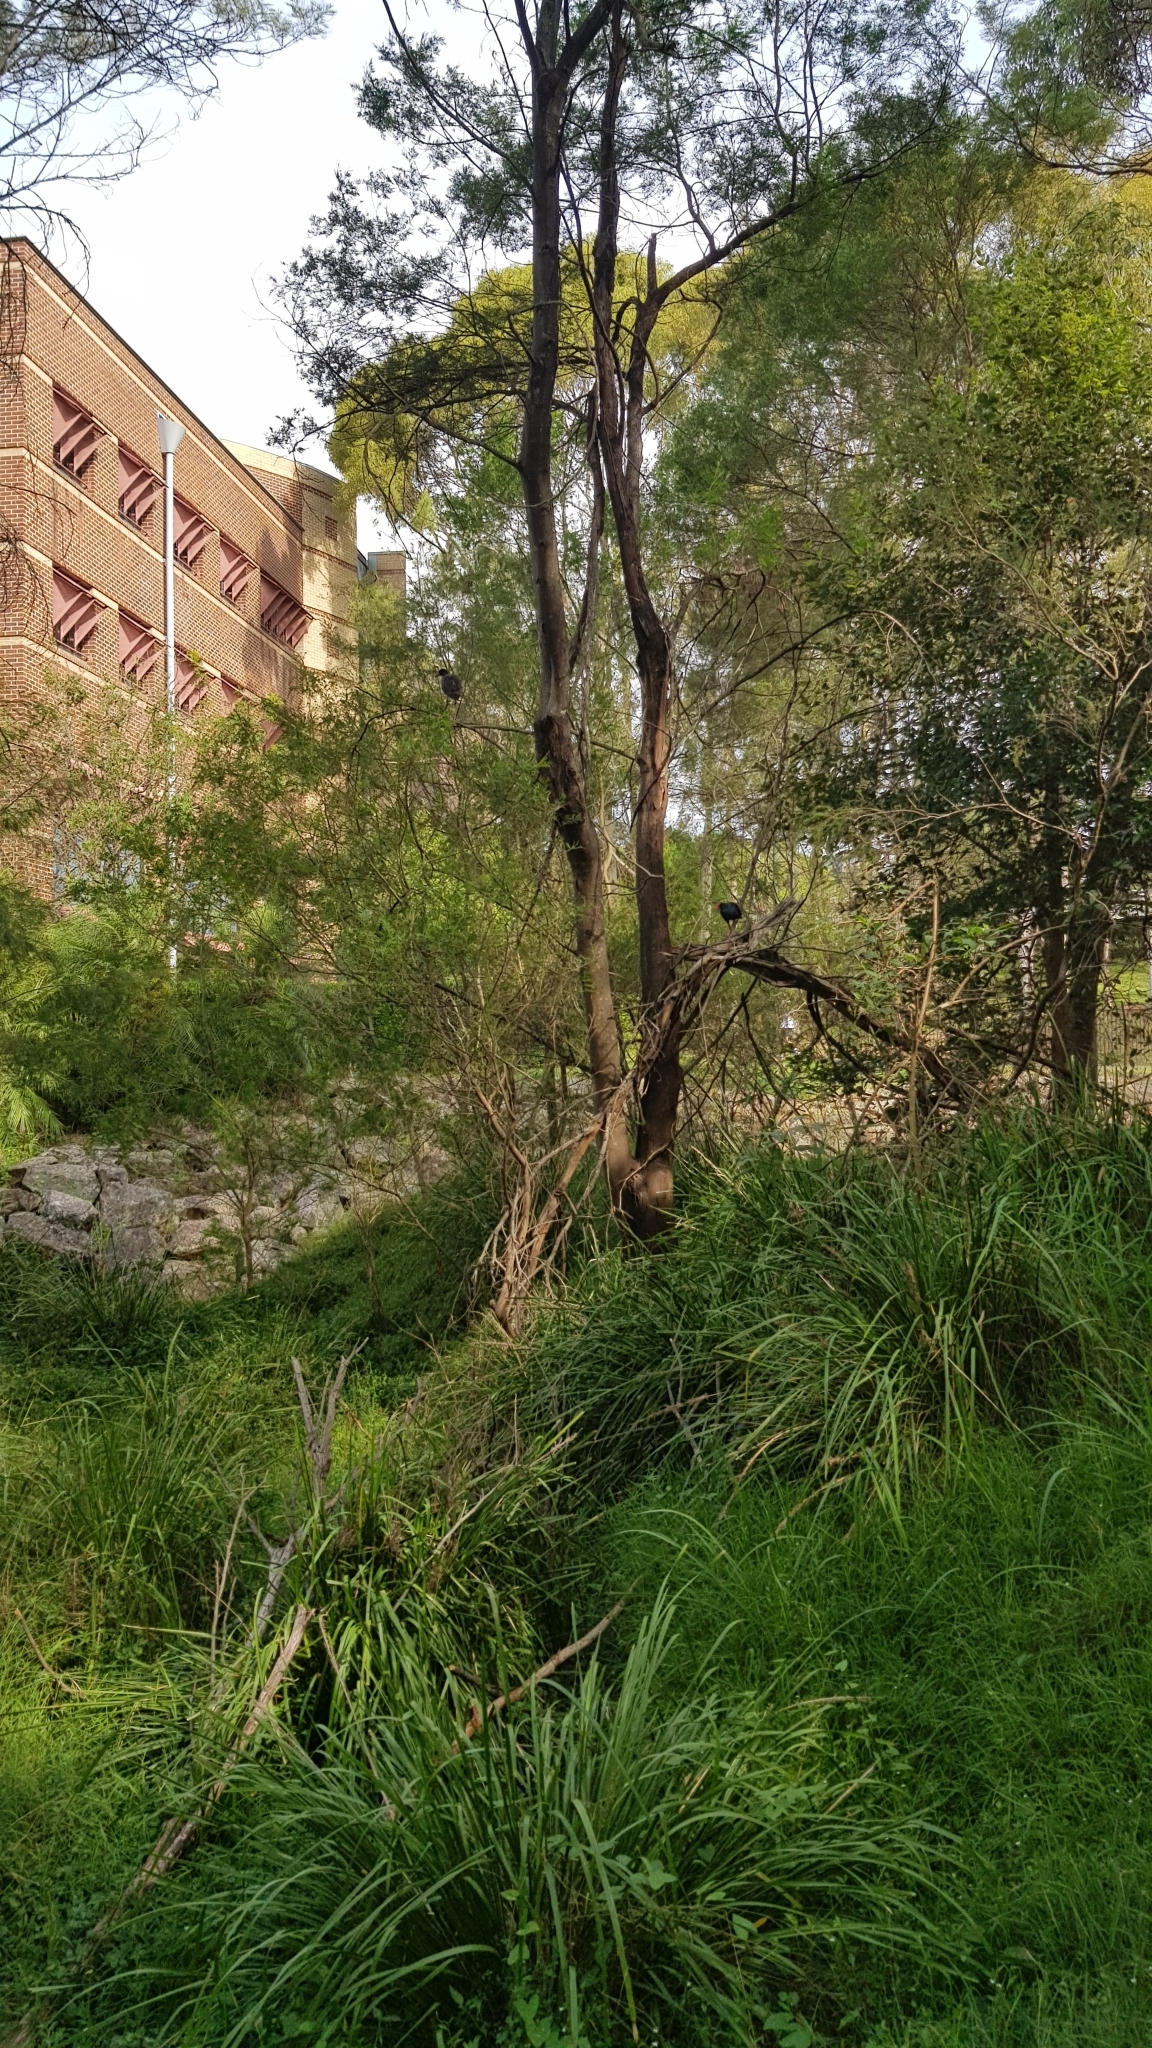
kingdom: Animalia
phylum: Chordata
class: Aves
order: Gruiformes
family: Rallidae
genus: Porphyrio
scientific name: Porphyrio melanotus
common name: Australasian swamphen
